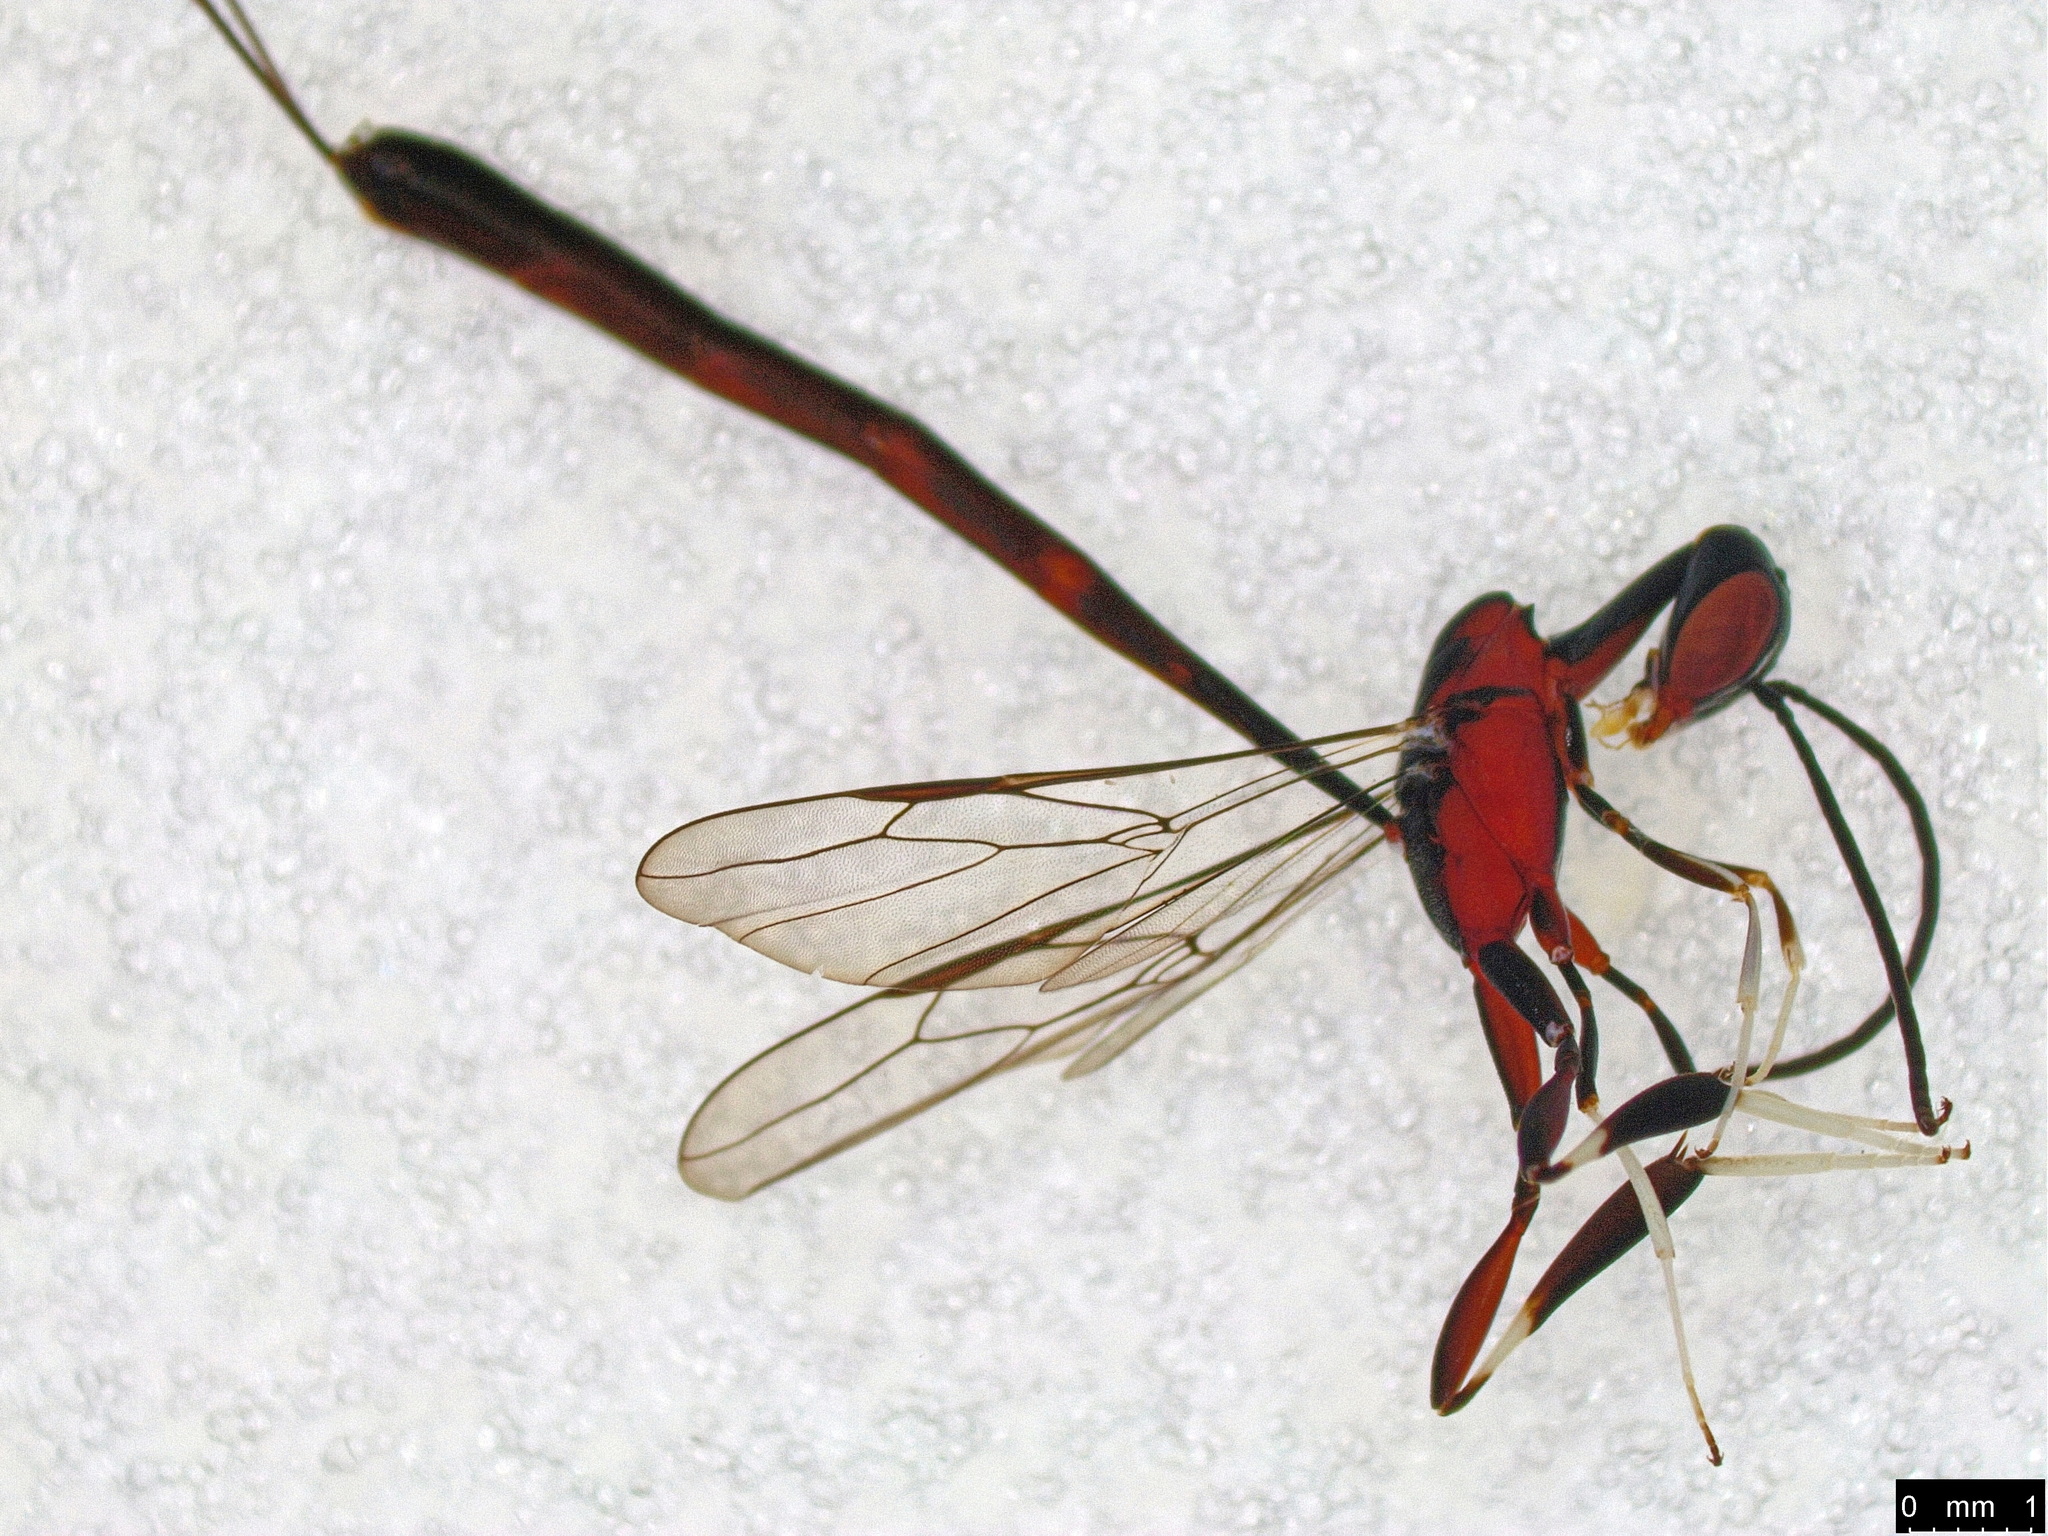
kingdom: Animalia
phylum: Arthropoda
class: Insecta
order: Hymenoptera
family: Gasteruptiidae
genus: Gasteruption
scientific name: Gasteruption
